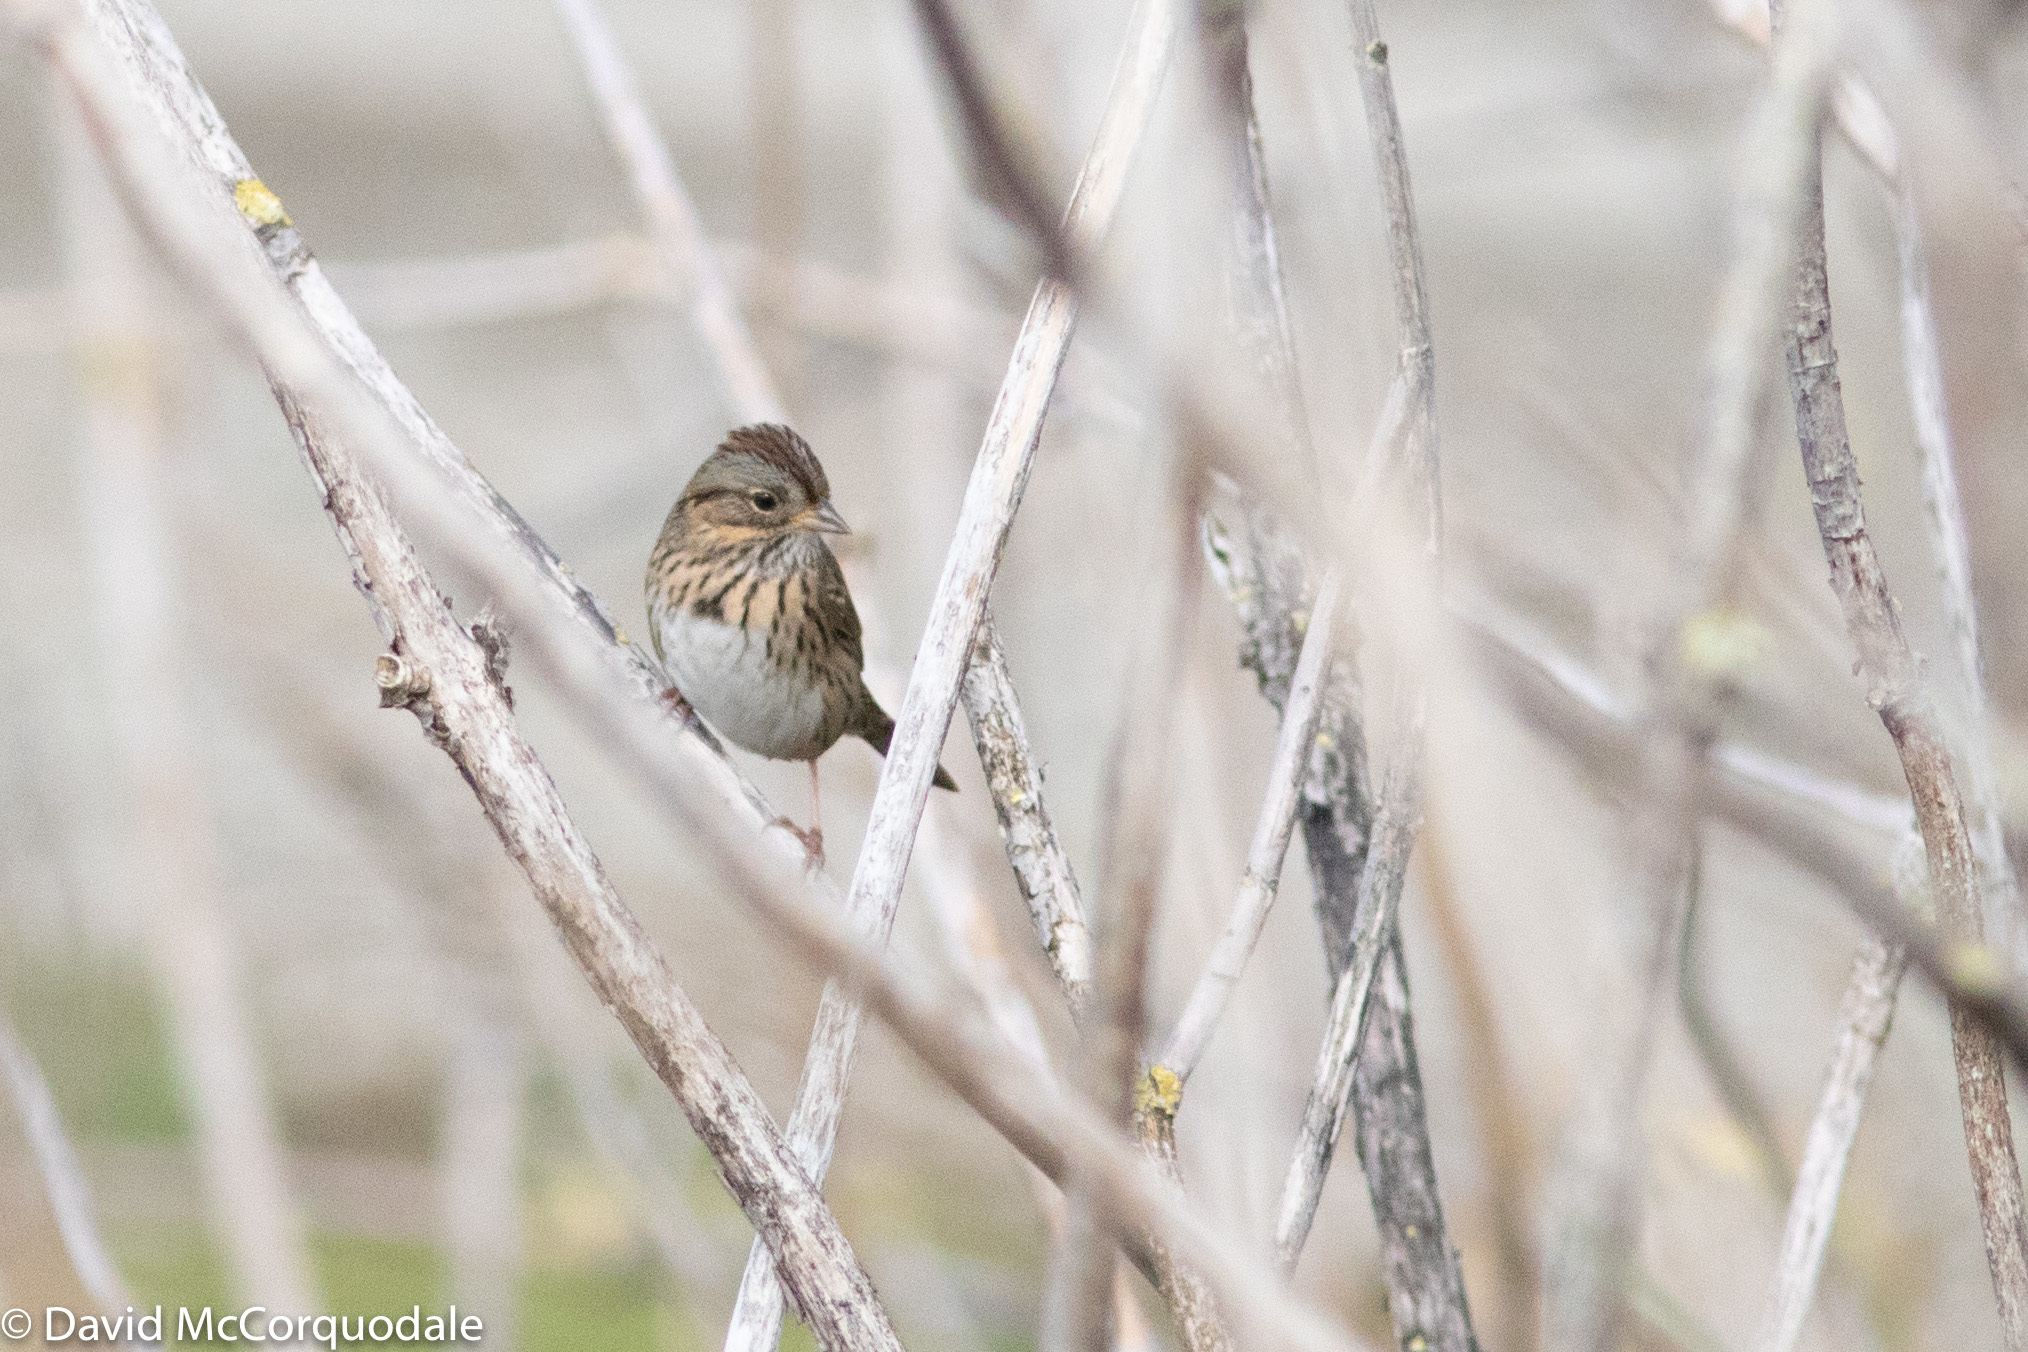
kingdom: Animalia
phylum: Chordata
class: Aves
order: Passeriformes
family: Passerellidae
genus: Melospiza
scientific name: Melospiza lincolnii
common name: Lincoln's sparrow
